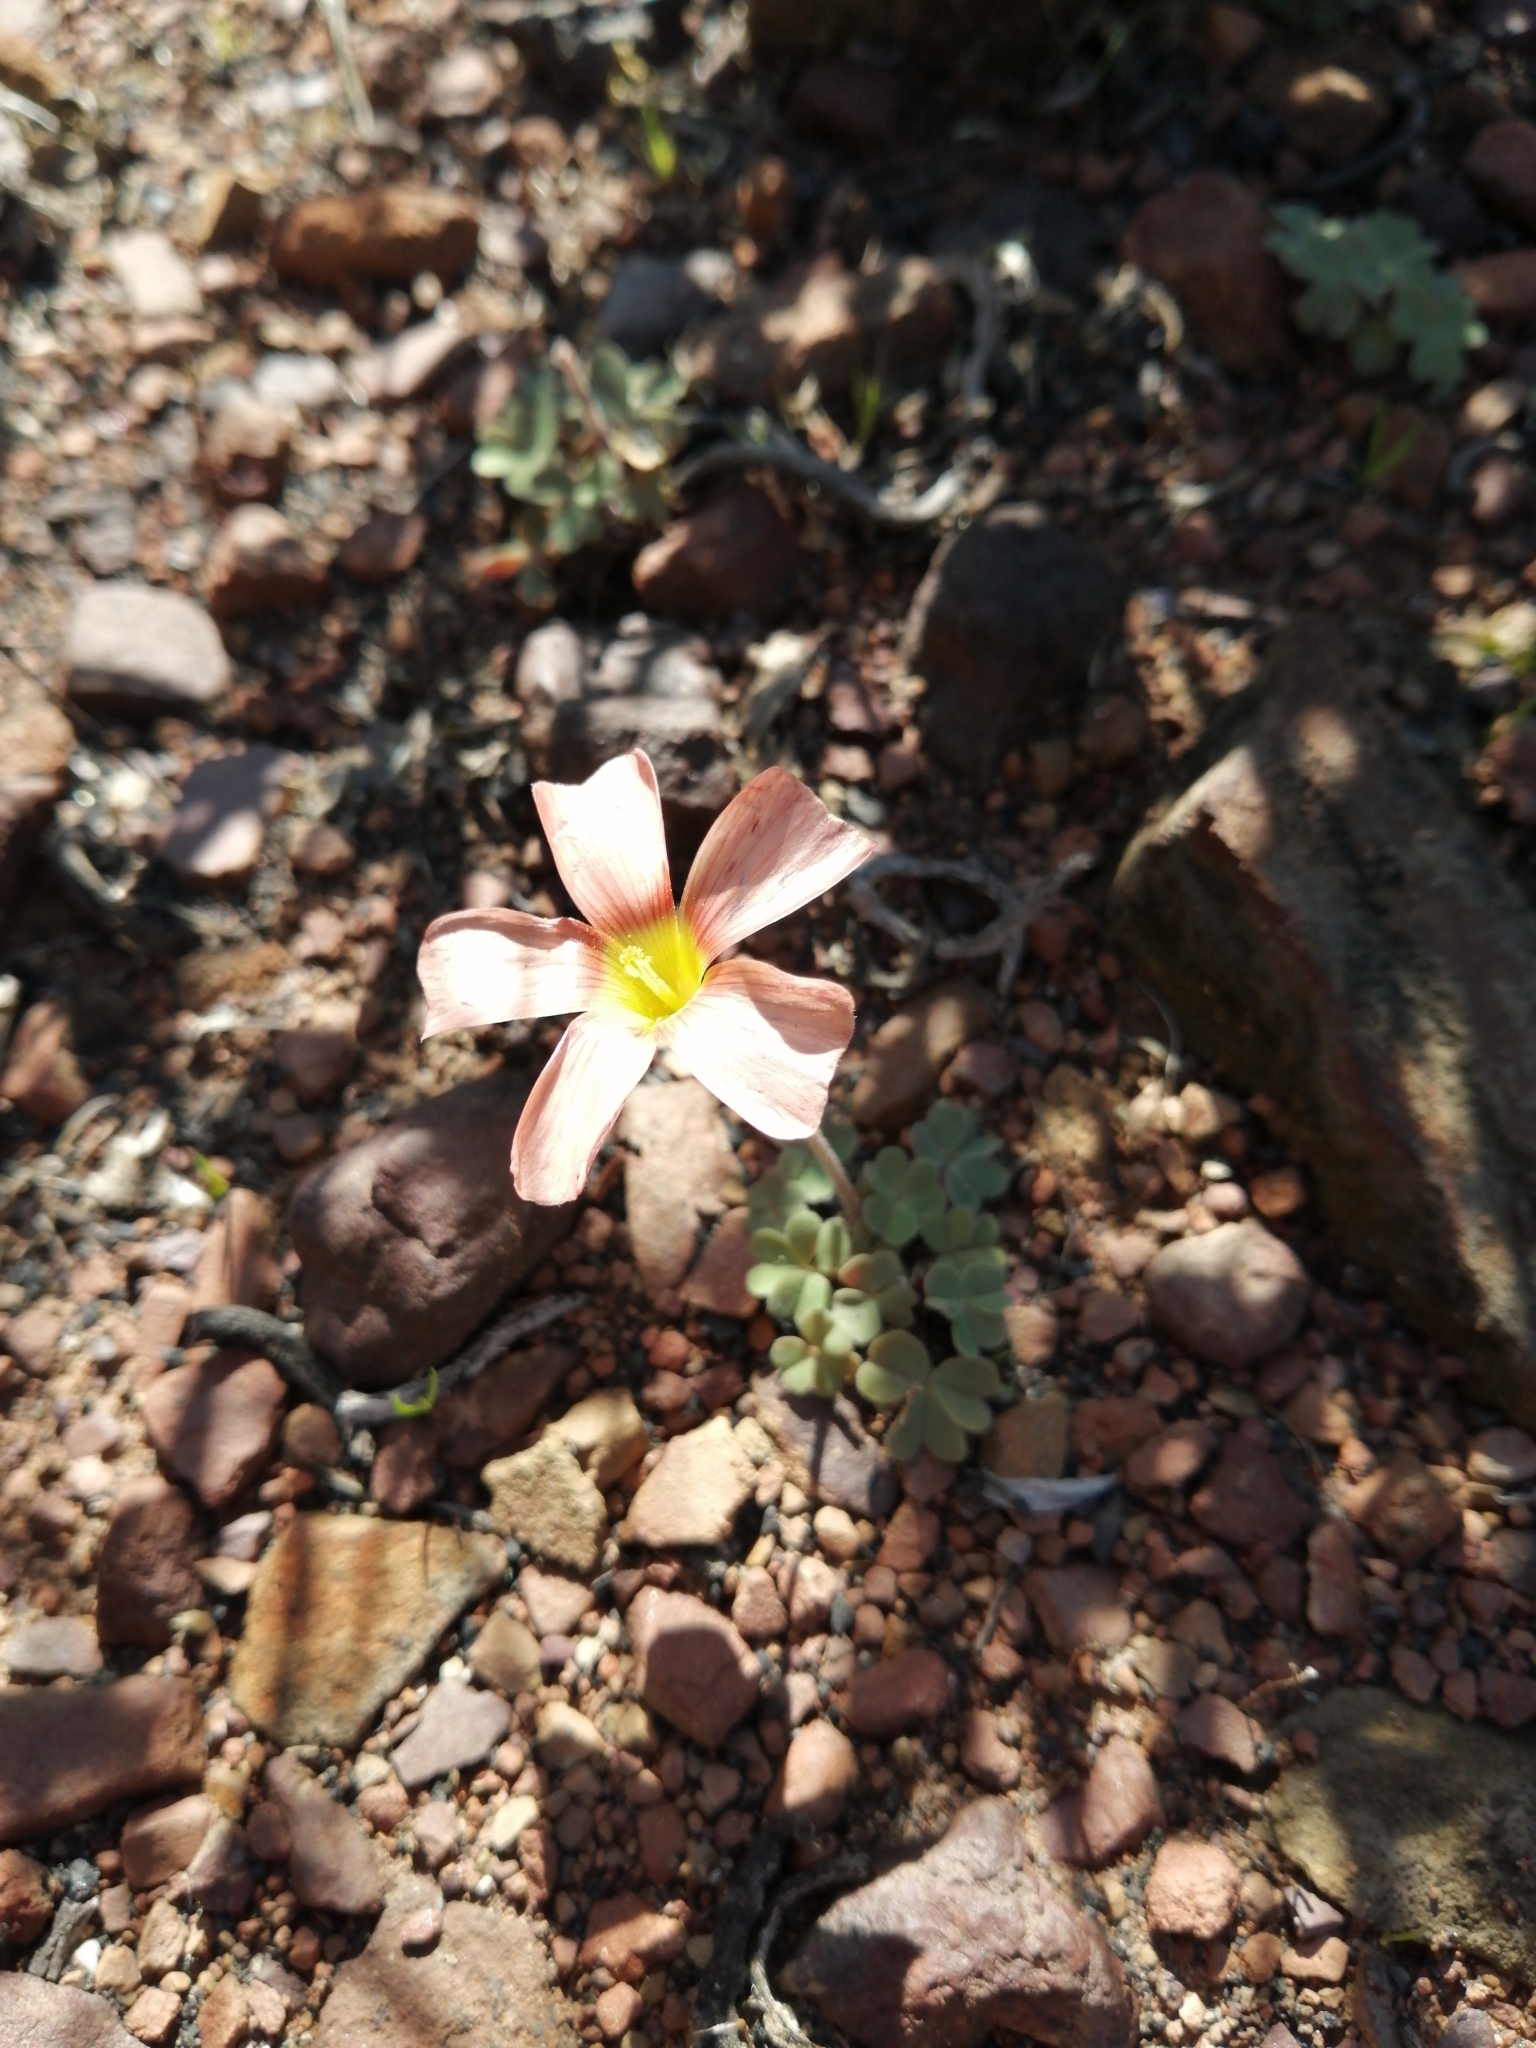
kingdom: Plantae
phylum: Tracheophyta
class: Magnoliopsida
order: Oxalidales
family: Oxalidaceae
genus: Oxalis
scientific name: Oxalis obtusa
